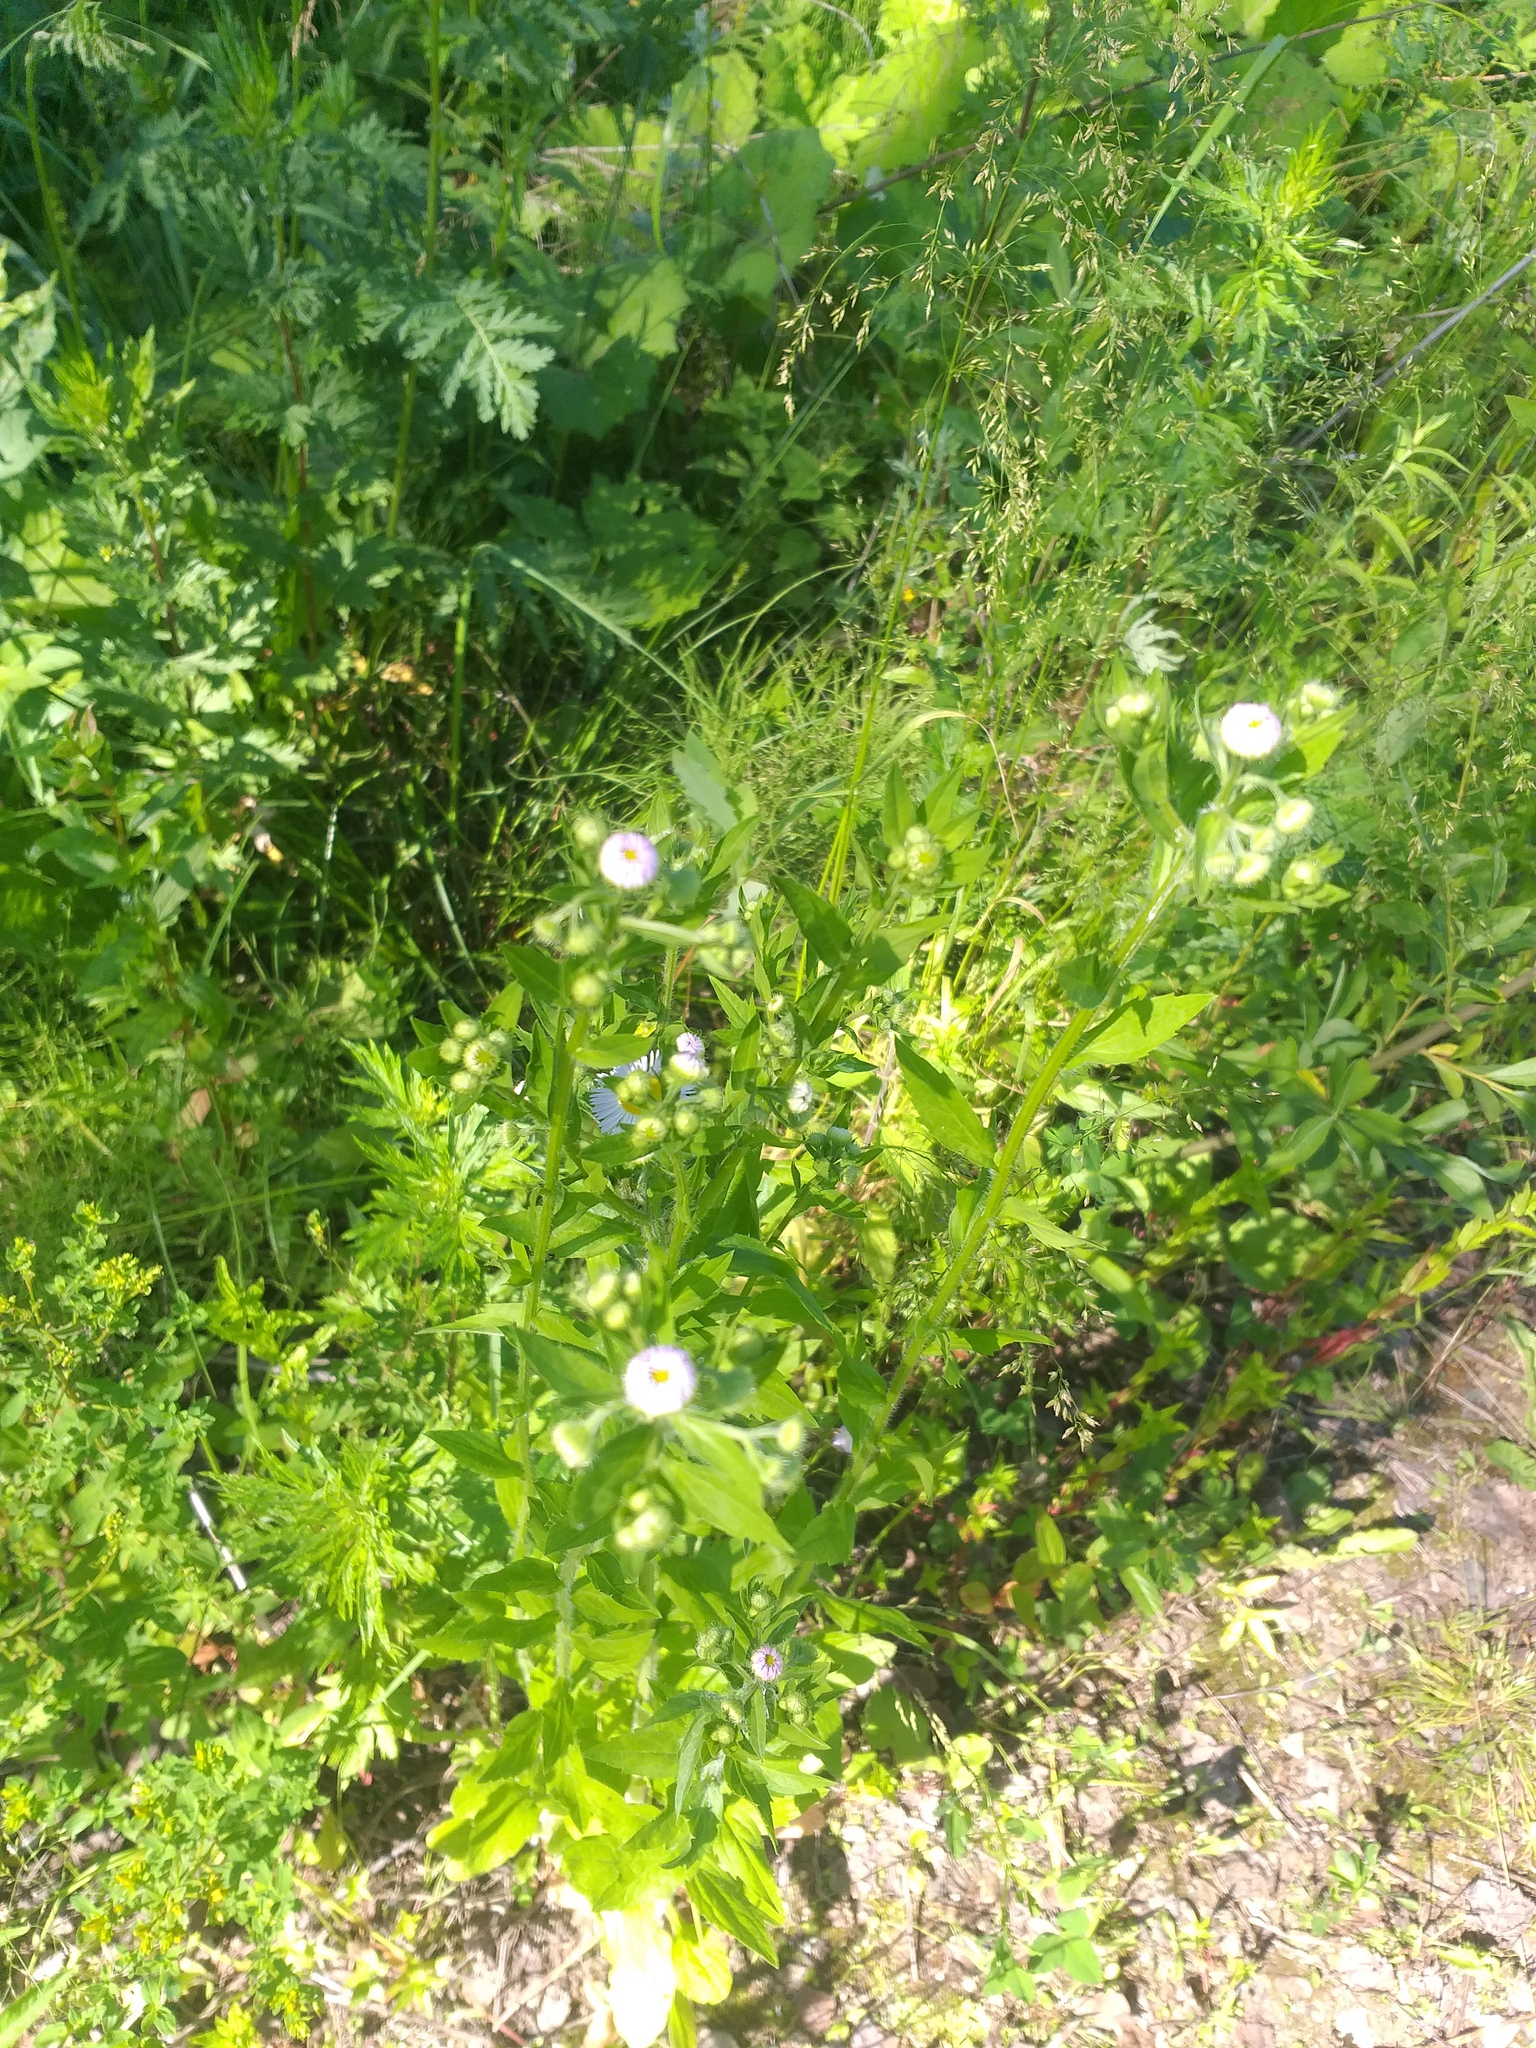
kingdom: Plantae
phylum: Tracheophyta
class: Magnoliopsida
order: Asterales
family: Asteraceae
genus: Erigeron
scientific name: Erigeron annuus
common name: Tall fleabane
